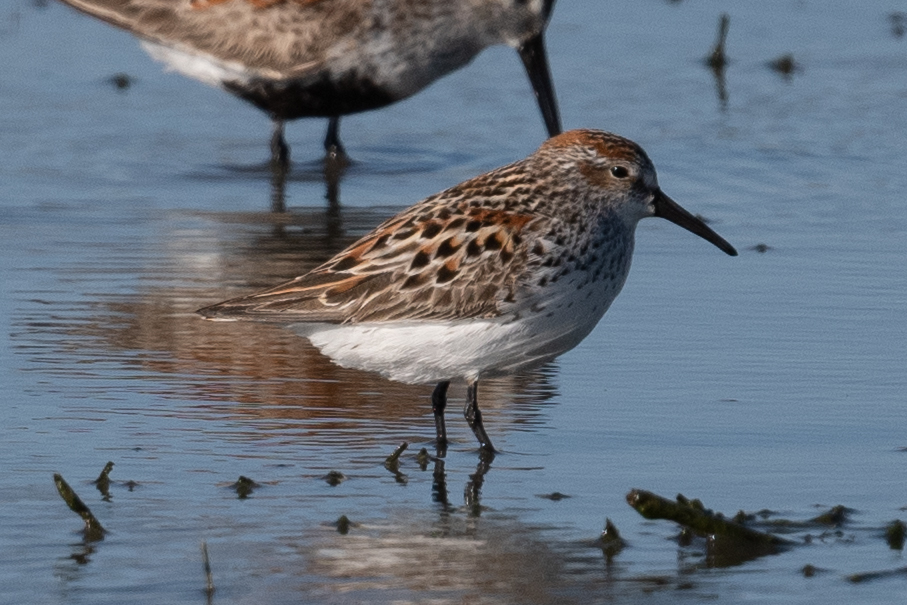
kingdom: Animalia
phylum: Chordata
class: Aves
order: Charadriiformes
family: Scolopacidae
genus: Calidris
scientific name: Calidris mauri
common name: Western sandpiper
